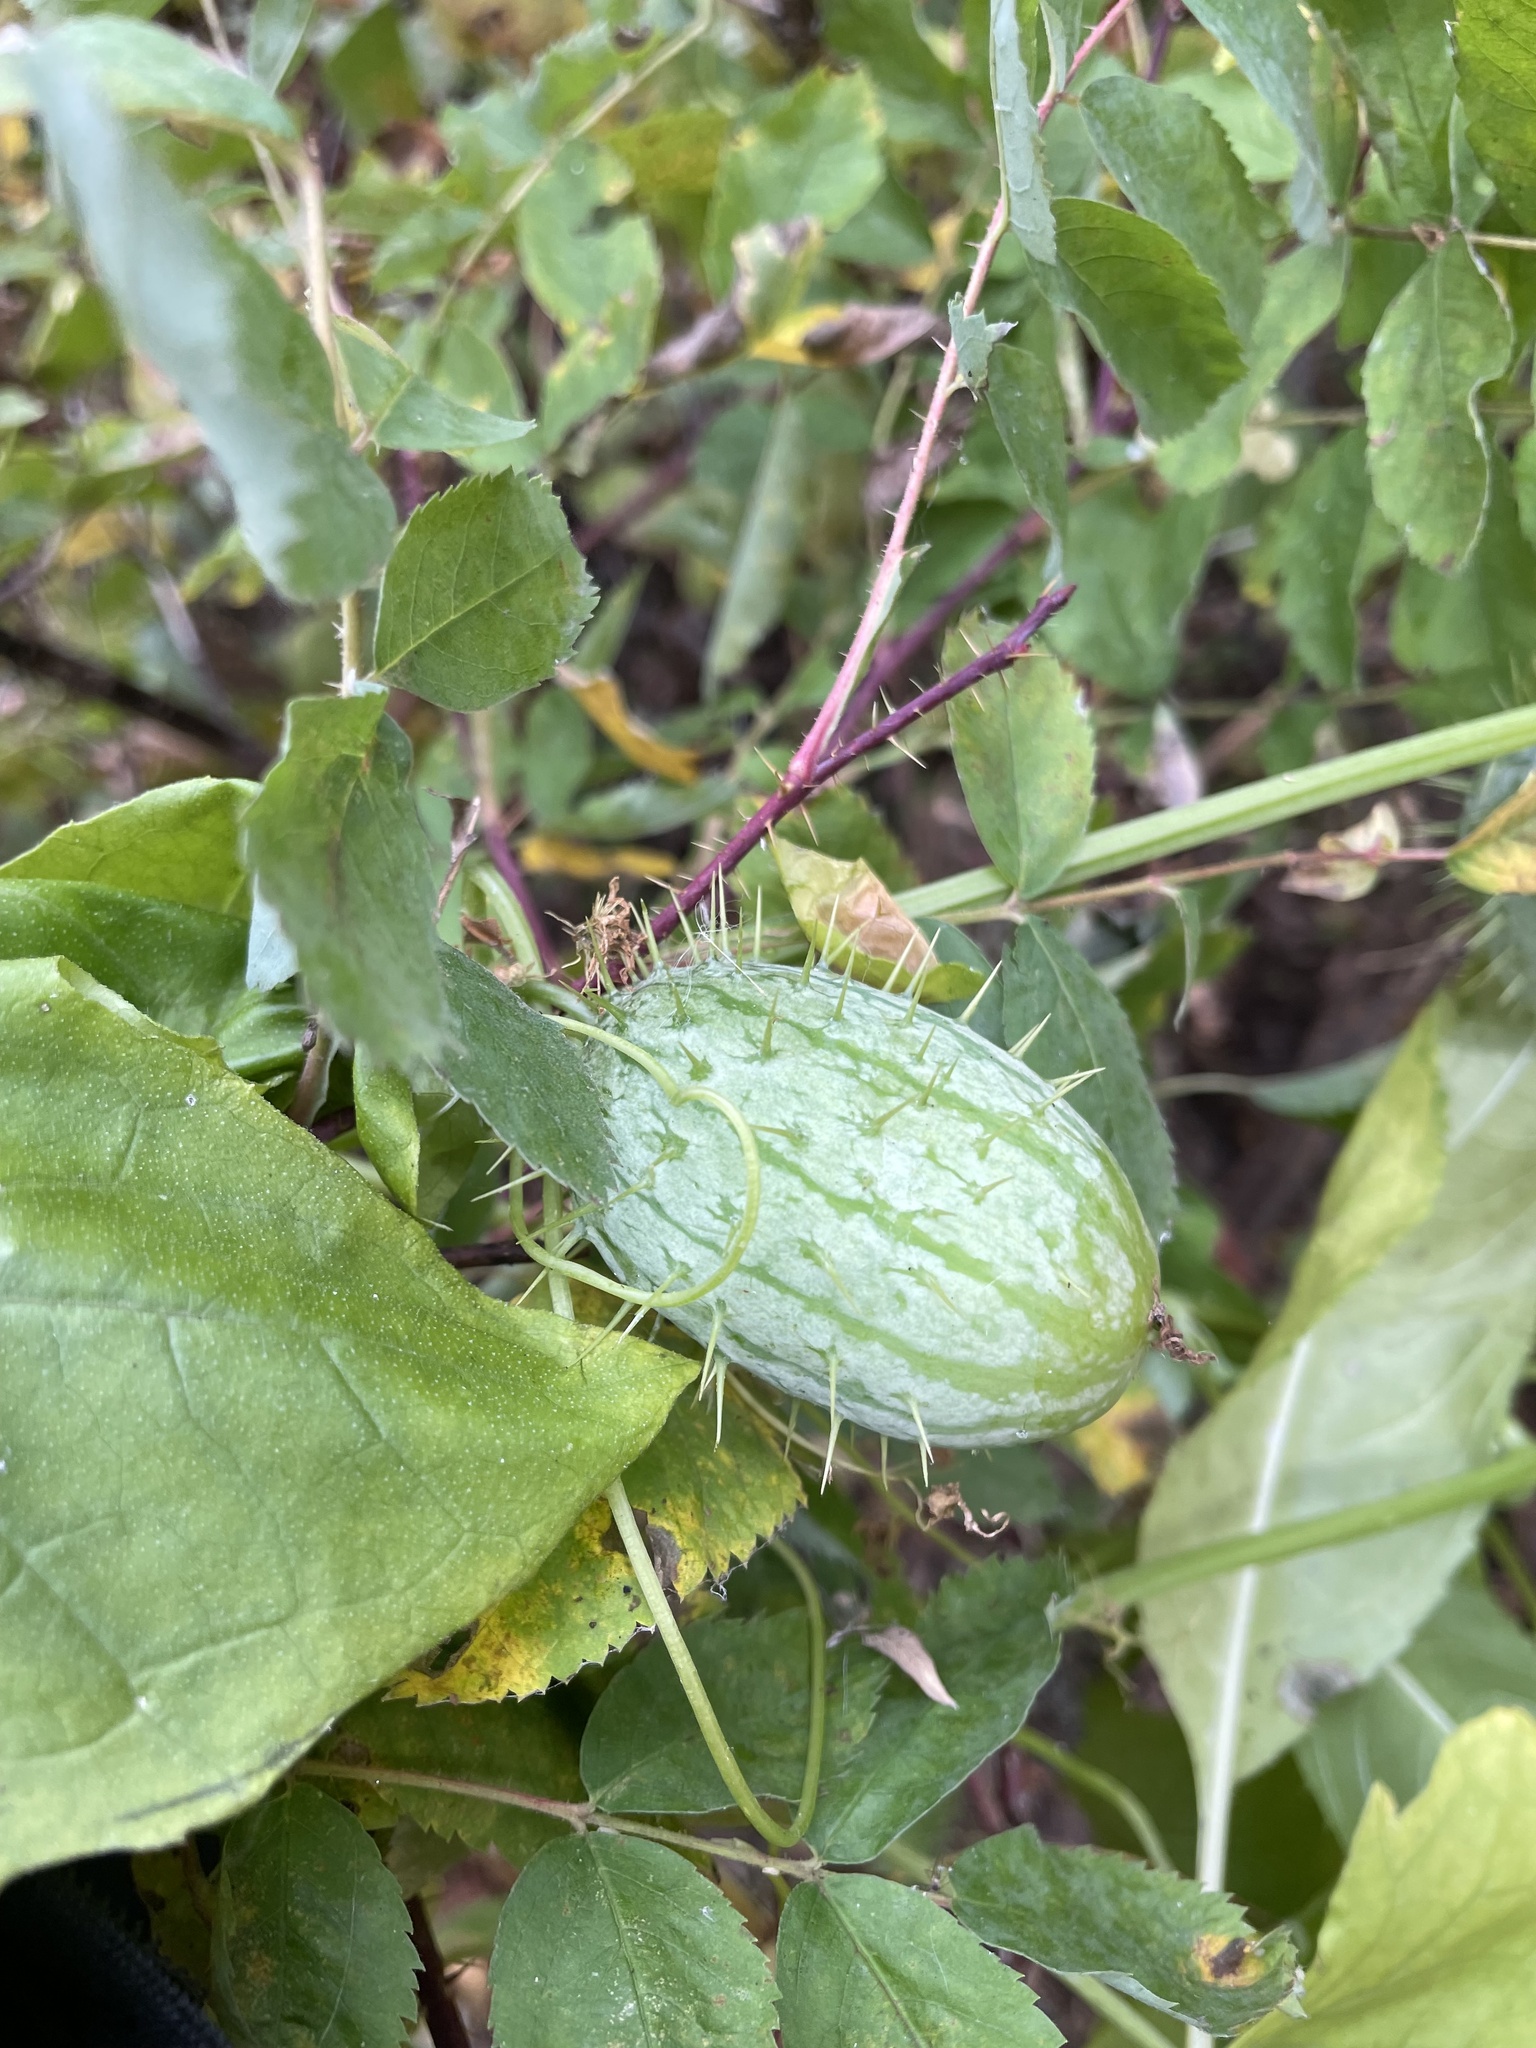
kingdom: Plantae
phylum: Tracheophyta
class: Magnoliopsida
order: Cucurbitales
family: Cucurbitaceae
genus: Echinocystis
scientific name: Echinocystis lobata
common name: Wild cucumber
